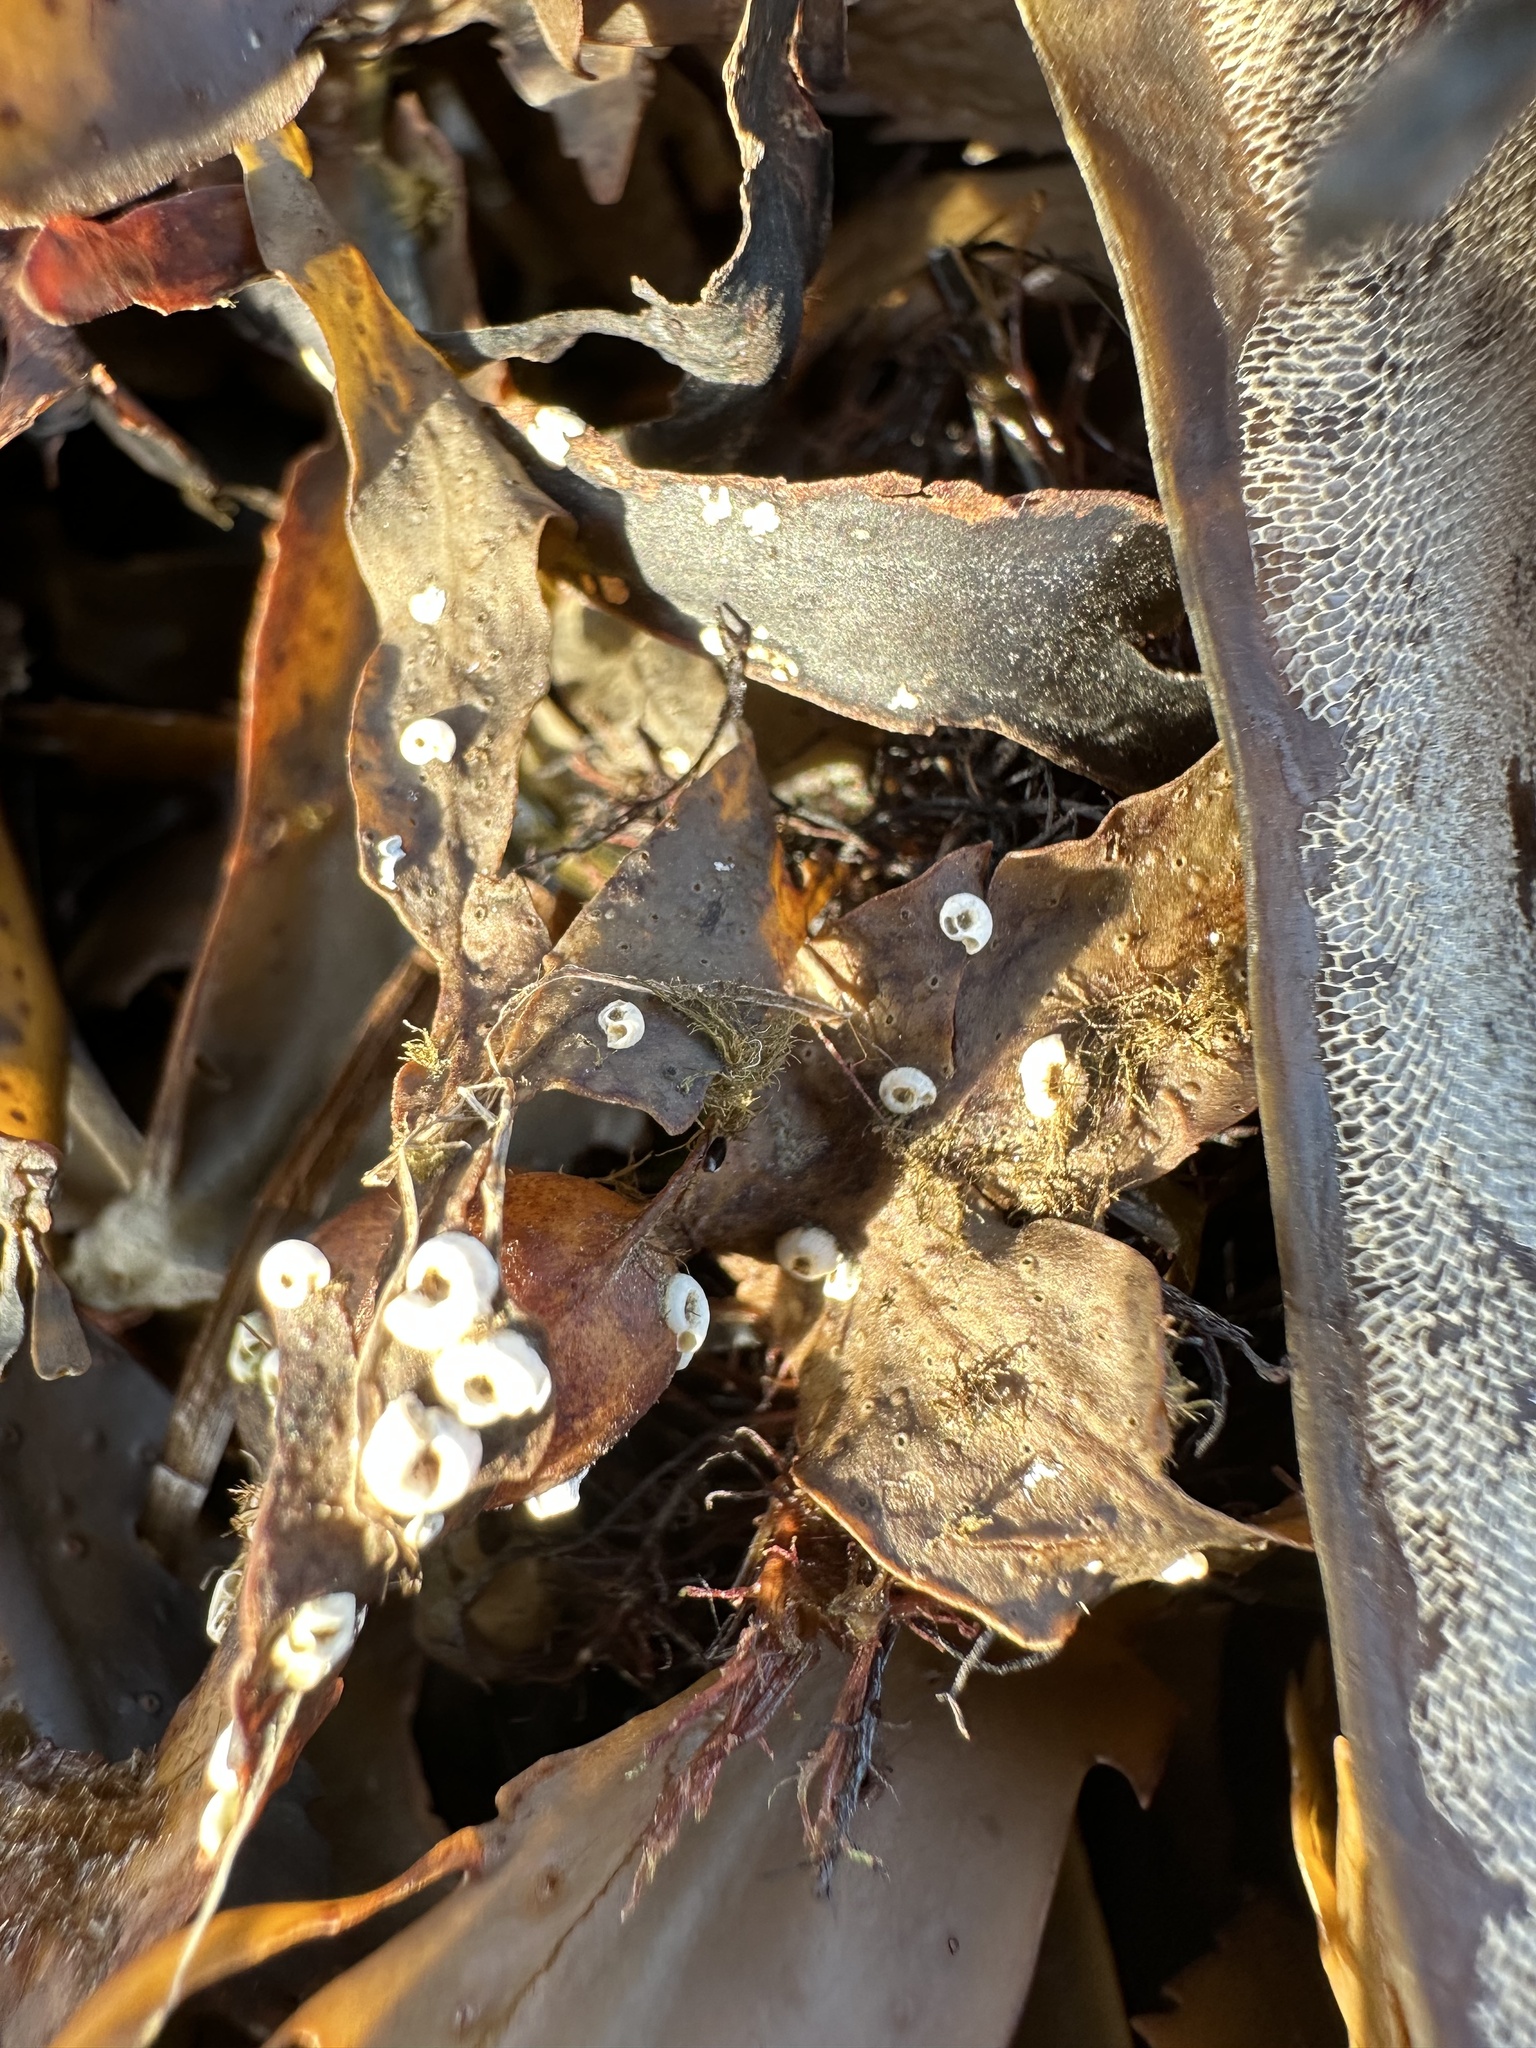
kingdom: Animalia
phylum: Annelida
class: Polychaeta
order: Sabellida
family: Serpulidae
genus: Spirorbis
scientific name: Spirorbis spirorbis
